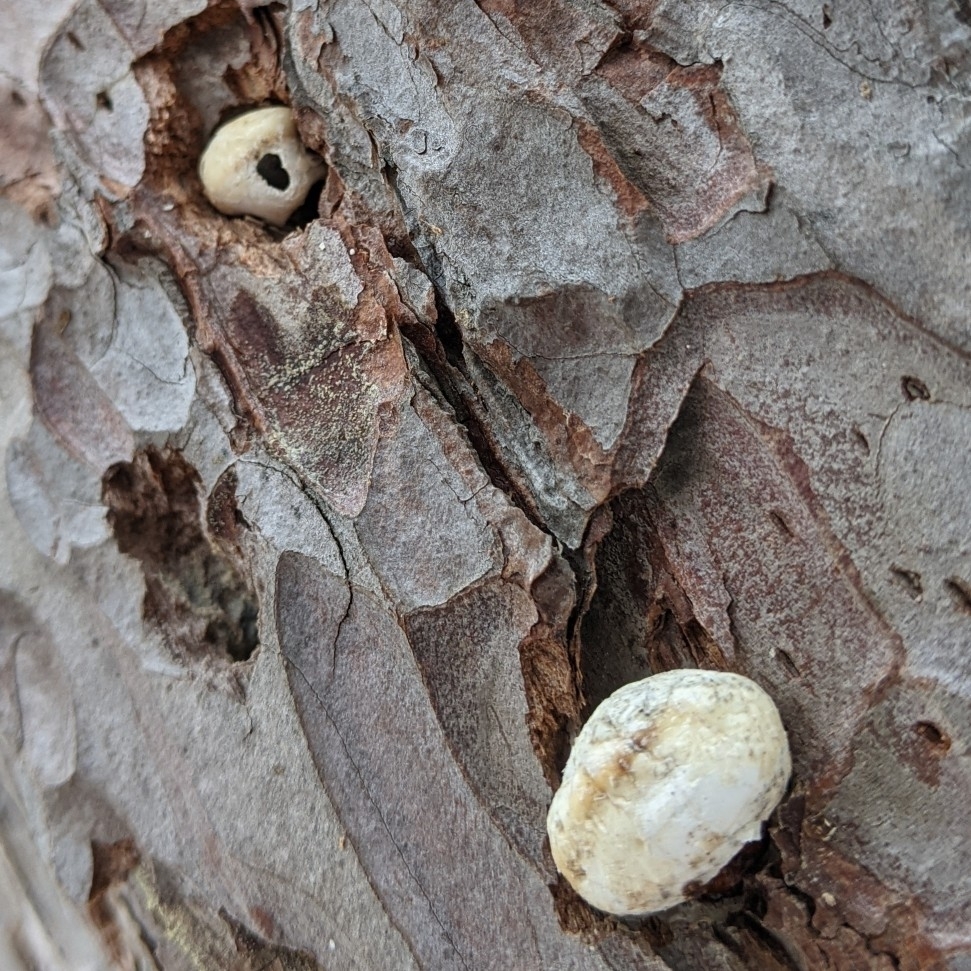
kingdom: Fungi
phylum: Basidiomycota
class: Agaricomycetes
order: Polyporales
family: Polyporaceae
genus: Cryptoporus
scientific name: Cryptoporus volvatus
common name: Veiled polypore
